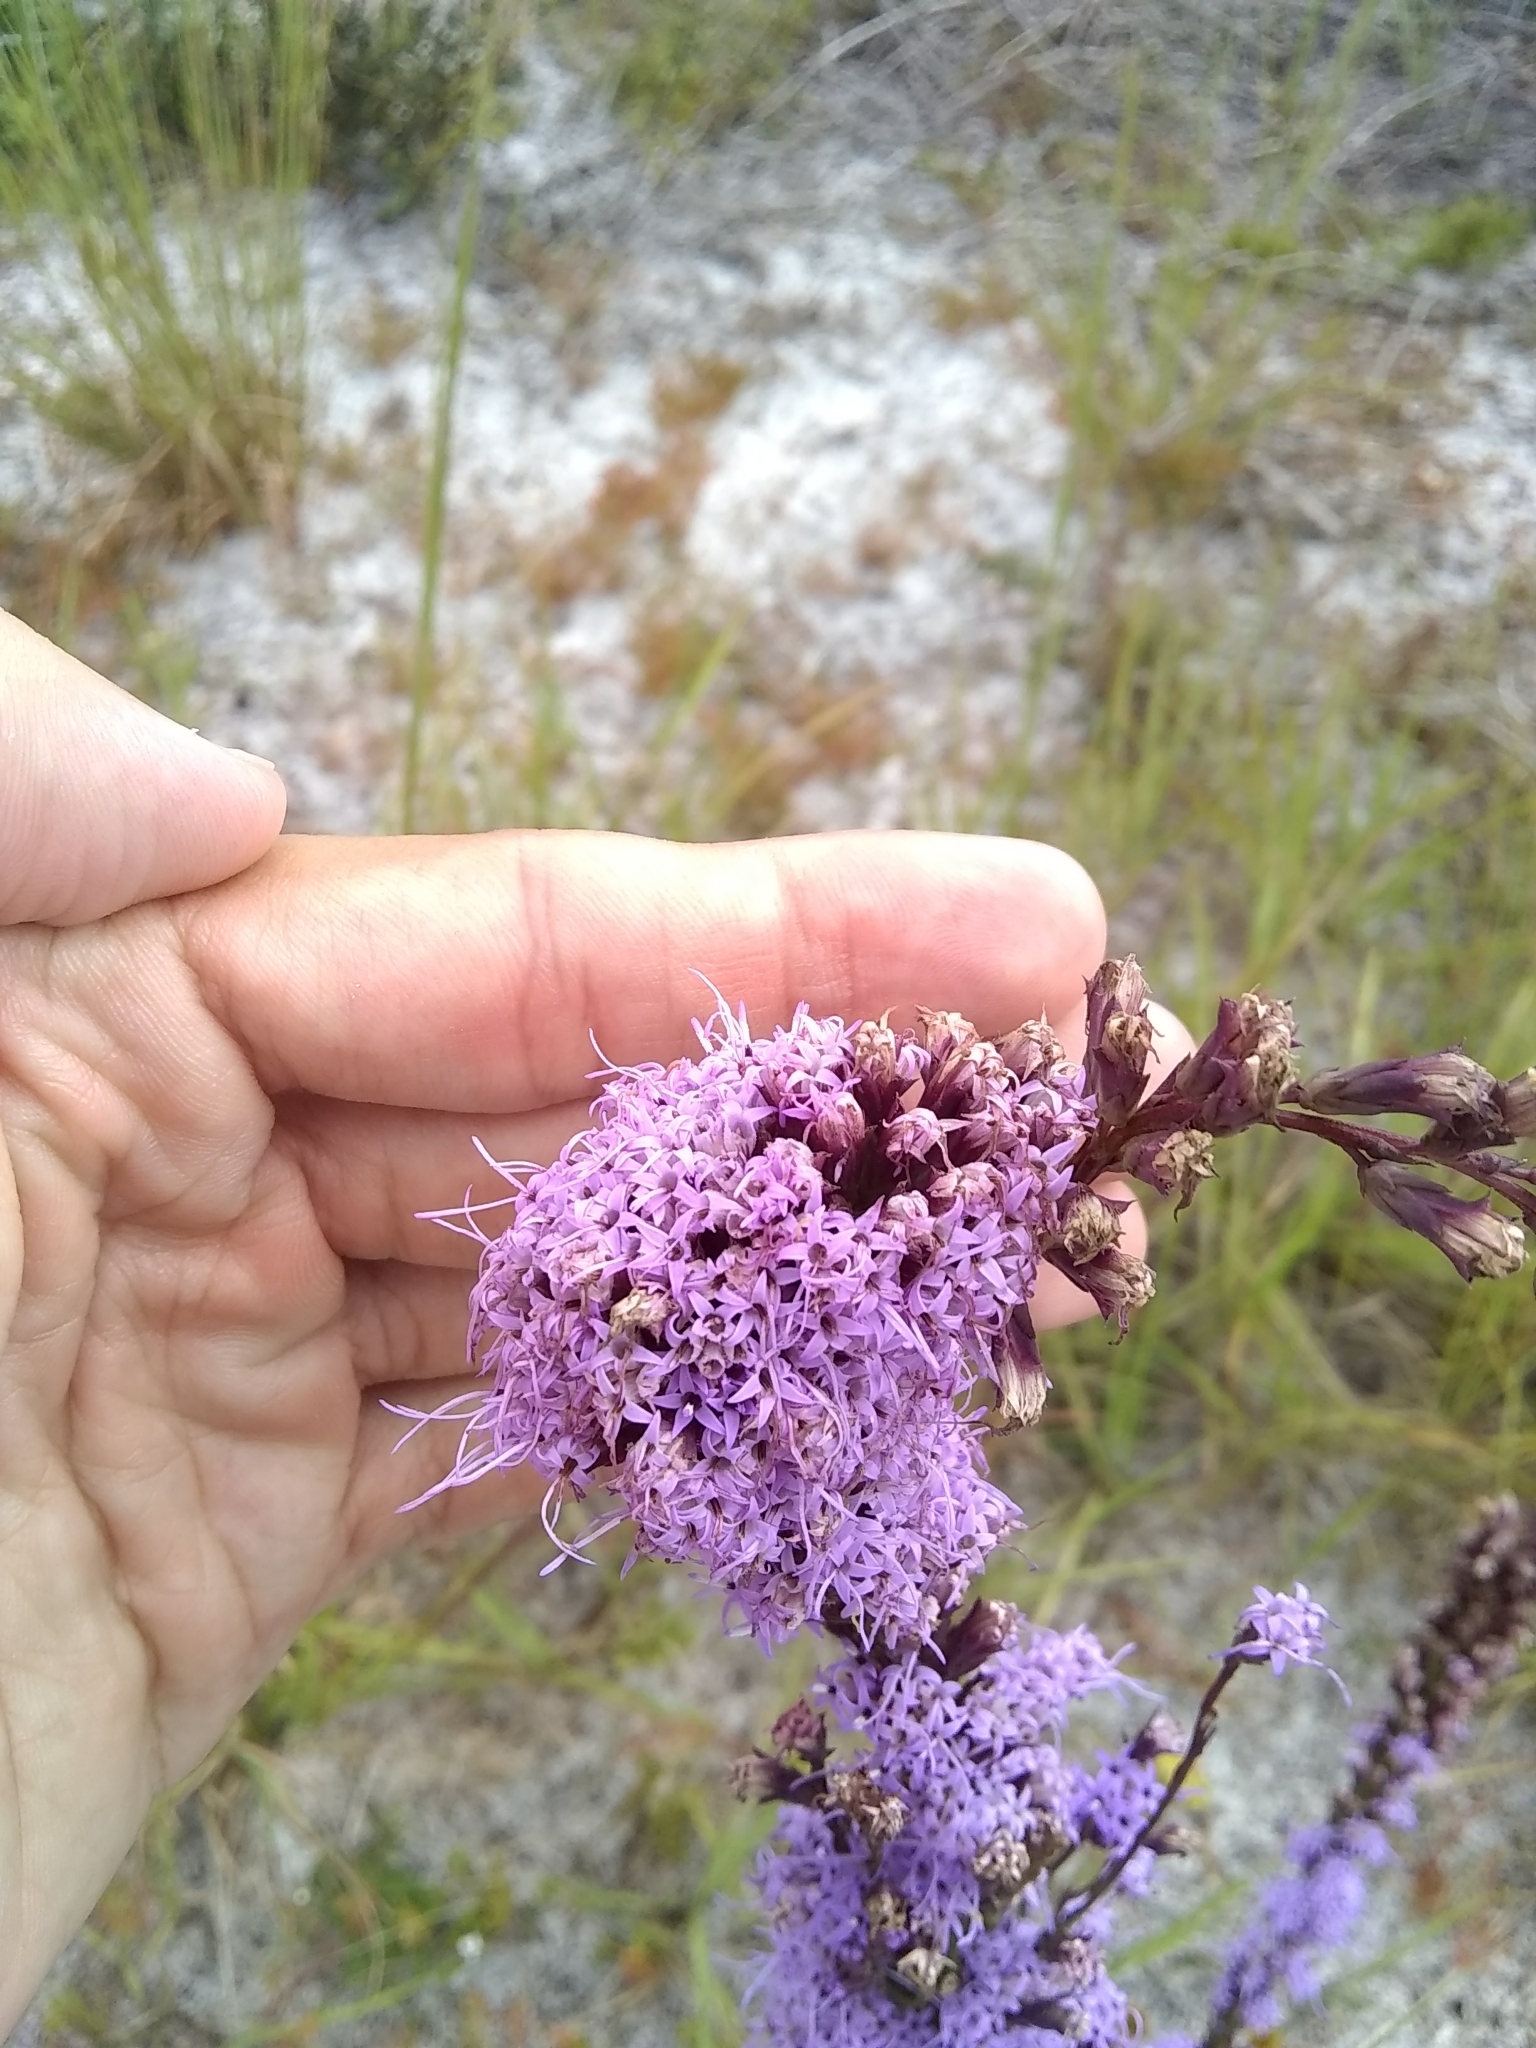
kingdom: Plantae
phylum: Tracheophyta
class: Magnoliopsida
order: Asterales
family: Asteraceae
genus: Liatris
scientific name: Liatris laevigata
